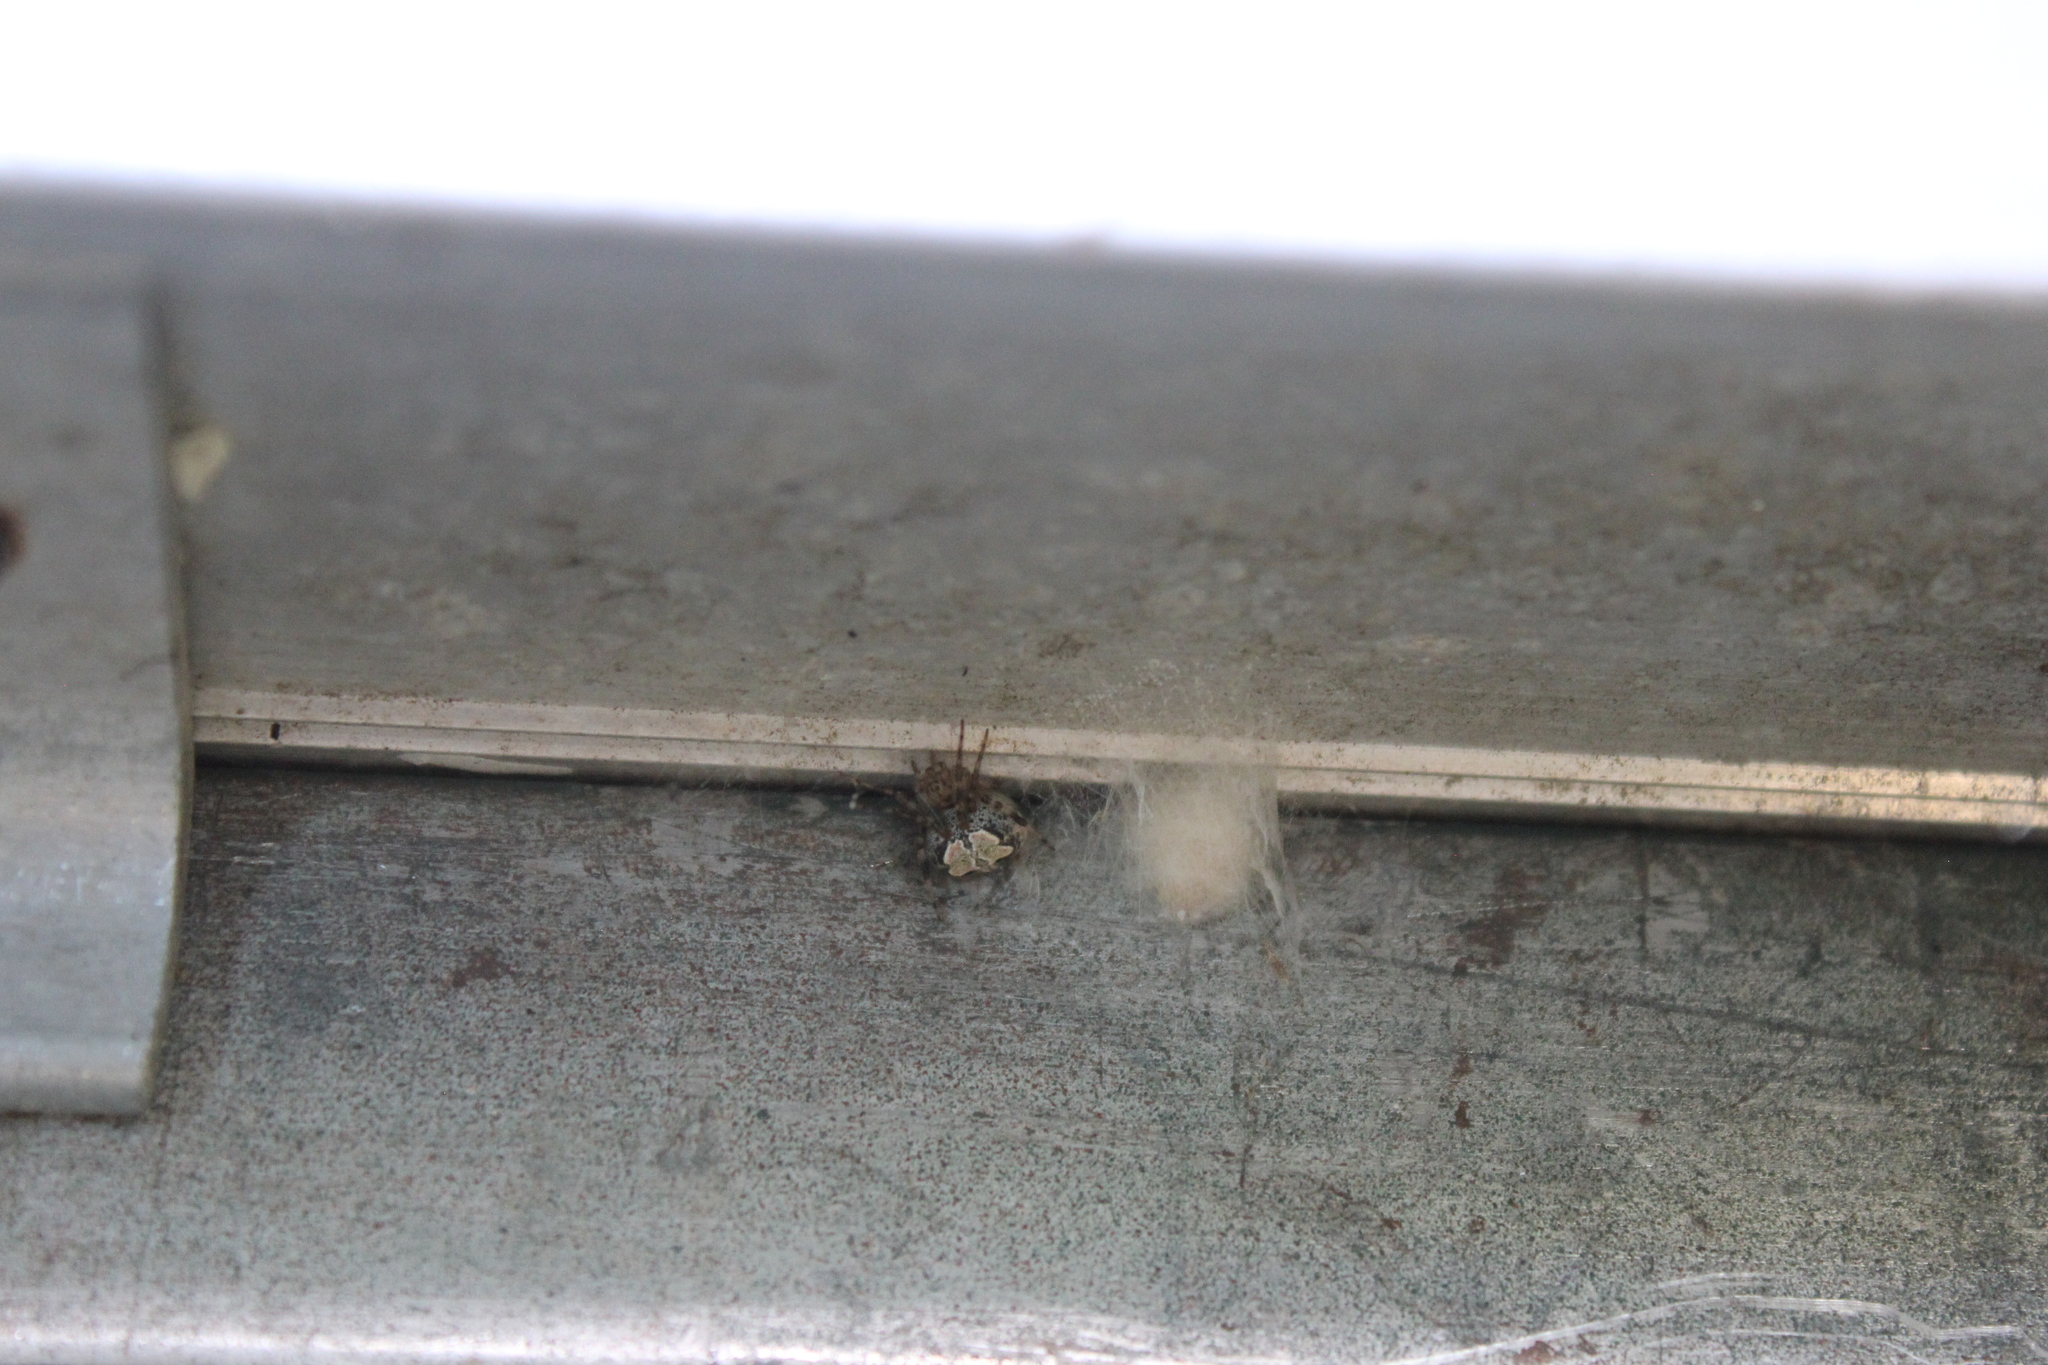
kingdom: Animalia
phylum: Arthropoda
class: Arachnida
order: Araneae
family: Araneidae
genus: Araneus
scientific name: Araneus pegnia
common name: Orb weavers
